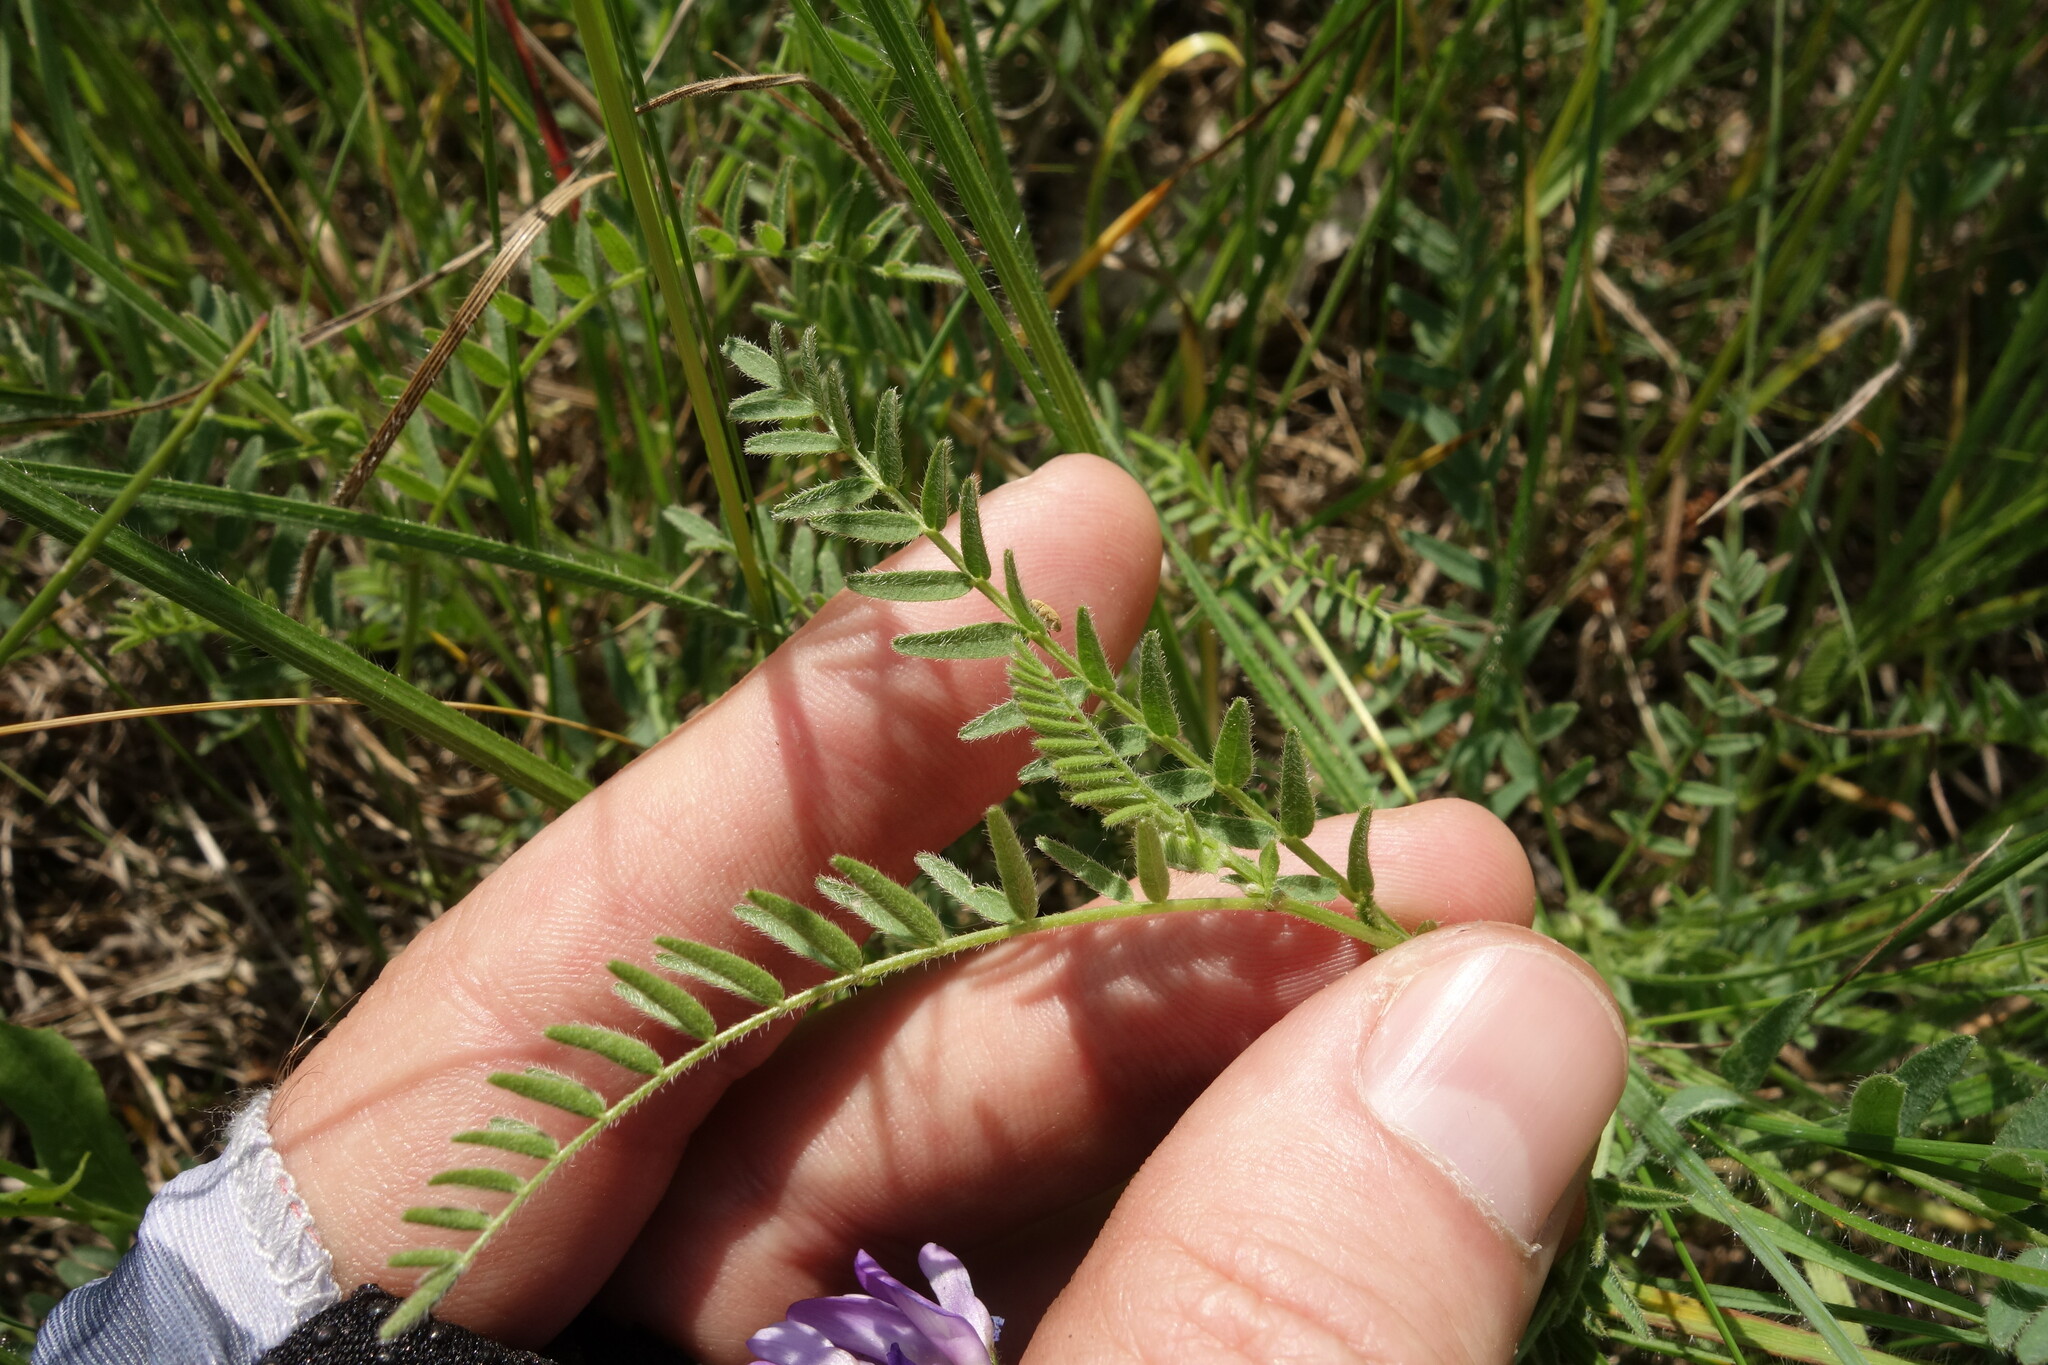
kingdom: Plantae
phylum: Tracheophyta
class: Magnoliopsida
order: Fabales
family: Fabaceae
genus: Astragalus
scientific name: Astragalus danicus
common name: Purple milk-vetch
